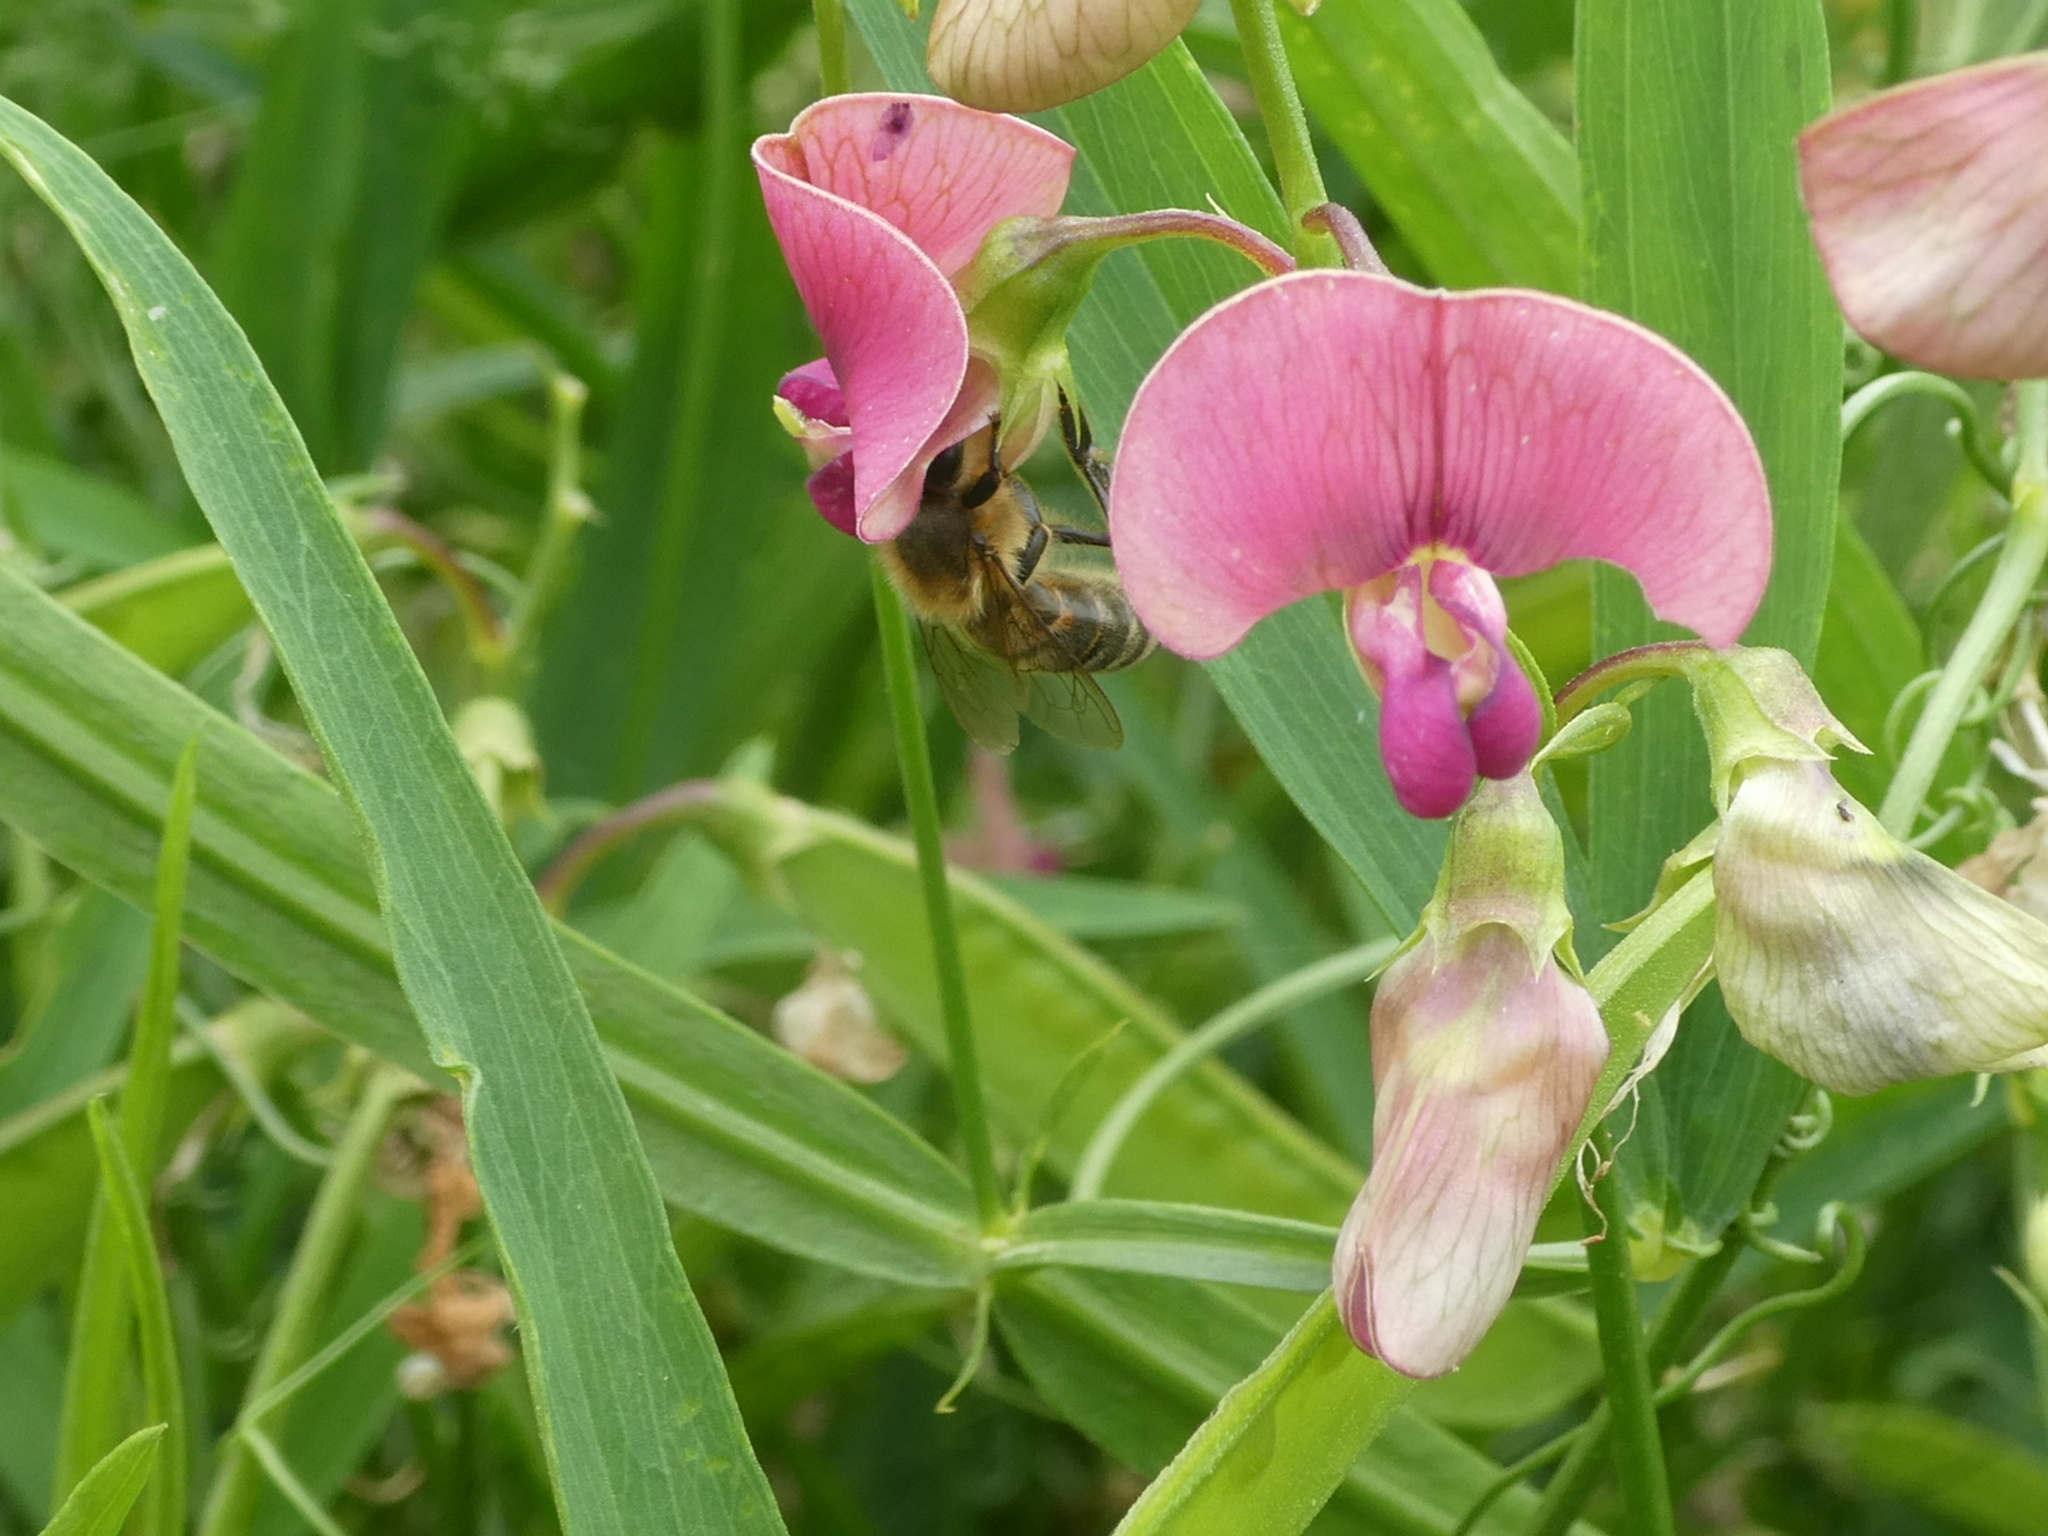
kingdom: Animalia
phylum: Arthropoda
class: Insecta
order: Hymenoptera
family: Apidae
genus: Apis
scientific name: Apis mellifera
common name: Honey bee
